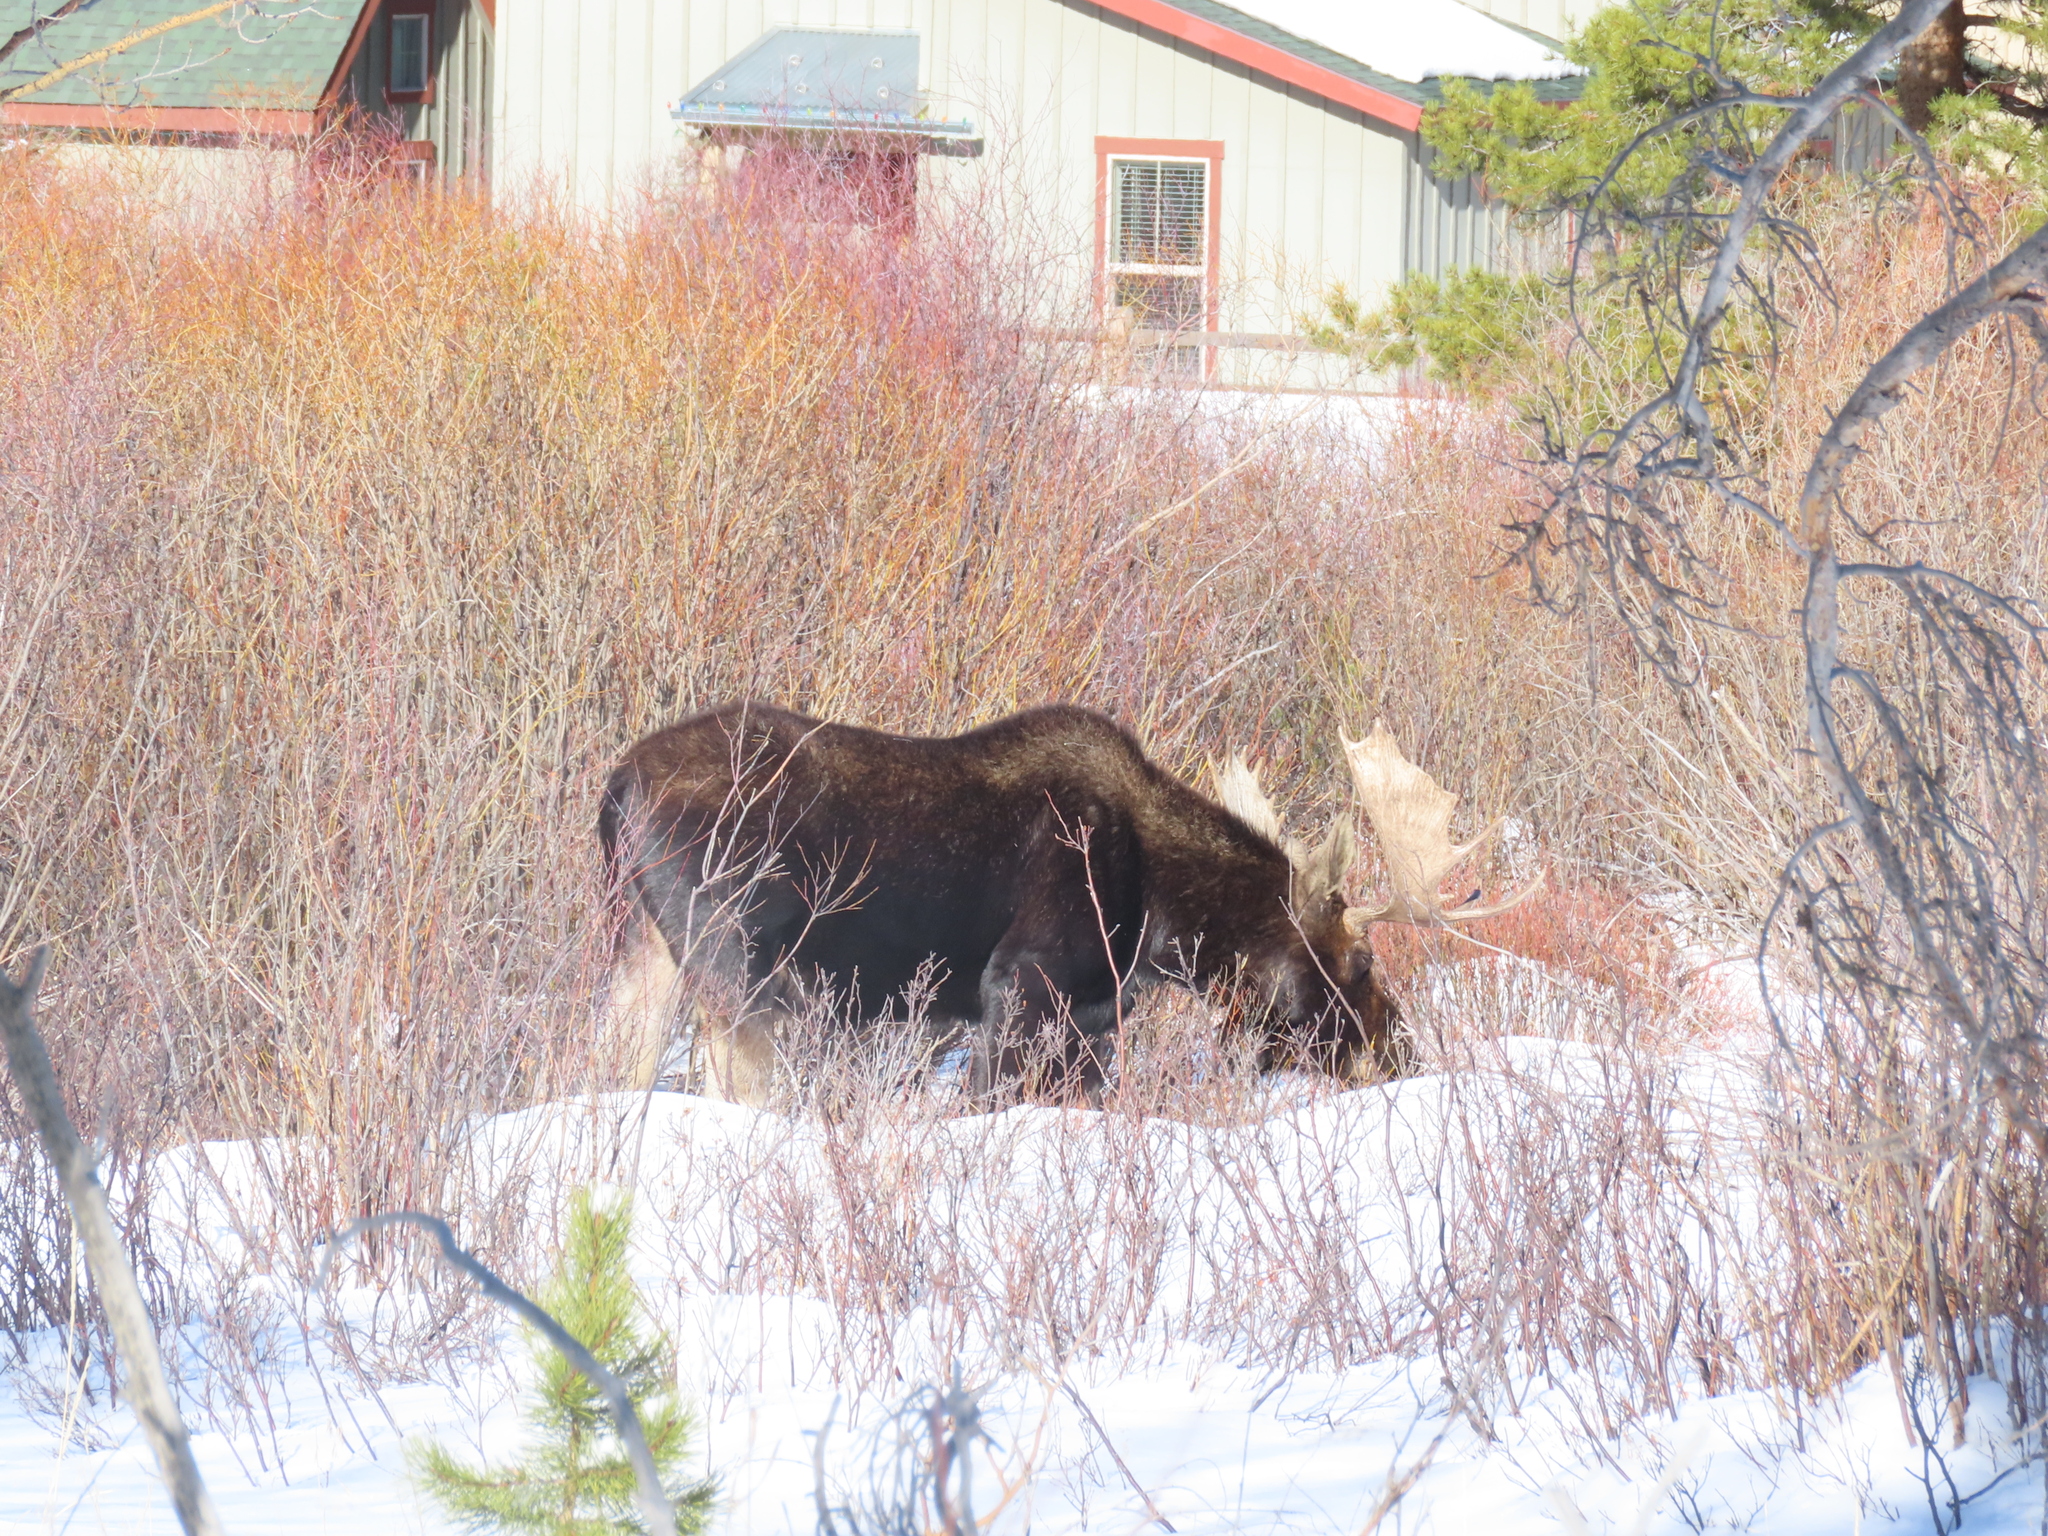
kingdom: Animalia
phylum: Chordata
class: Mammalia
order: Artiodactyla
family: Cervidae
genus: Alces
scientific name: Alces alces
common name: Moose
